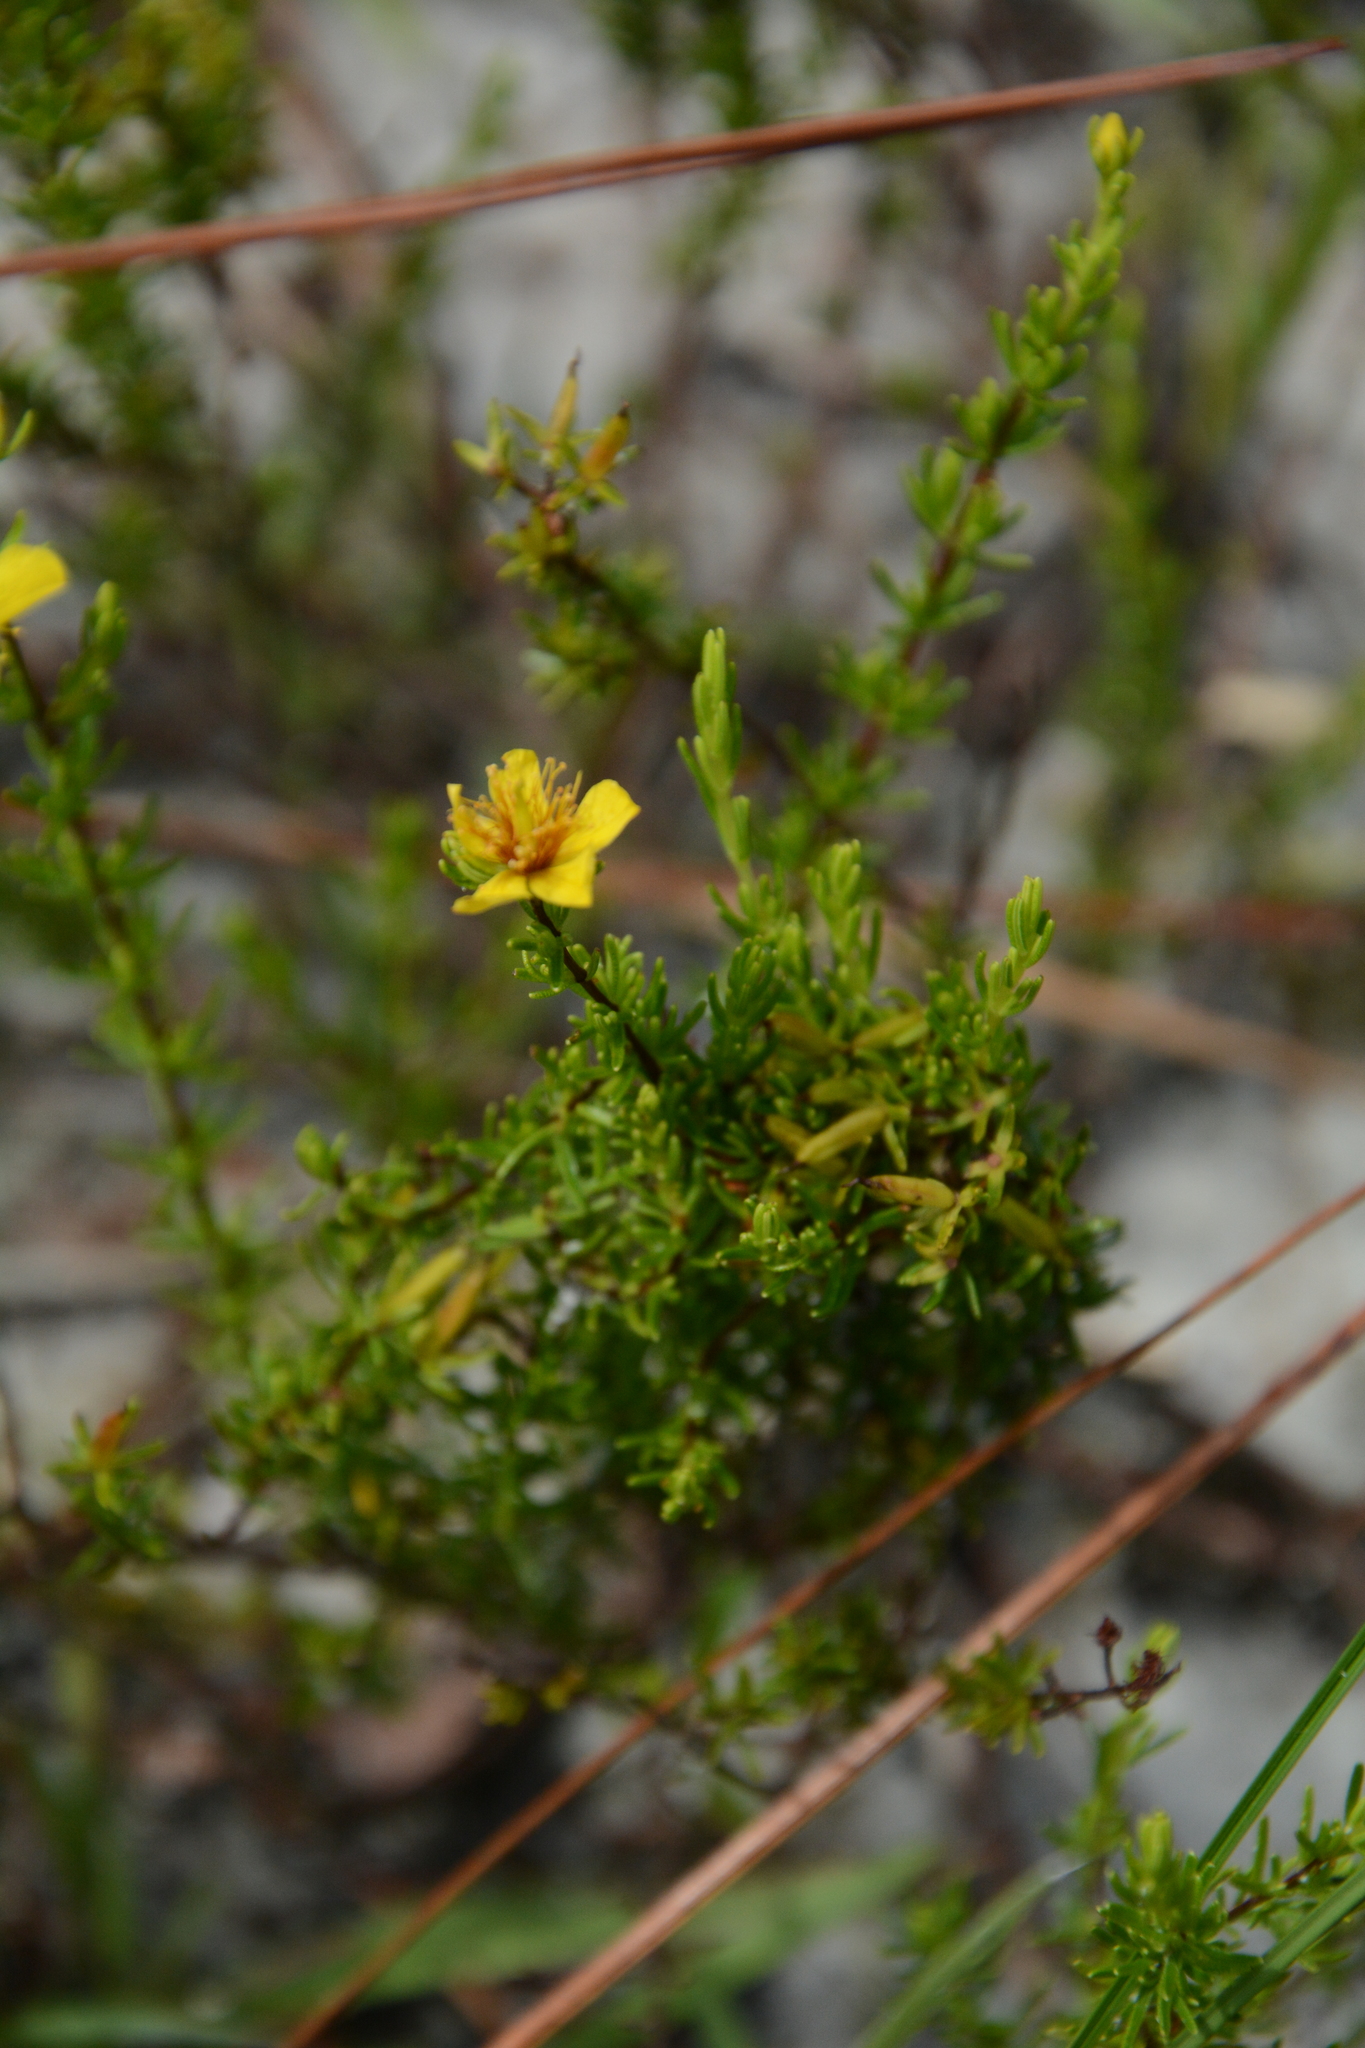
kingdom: Plantae
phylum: Tracheophyta
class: Magnoliopsida
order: Malpighiales
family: Hypericaceae
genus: Hypericum
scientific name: Hypericum tenuifolium
